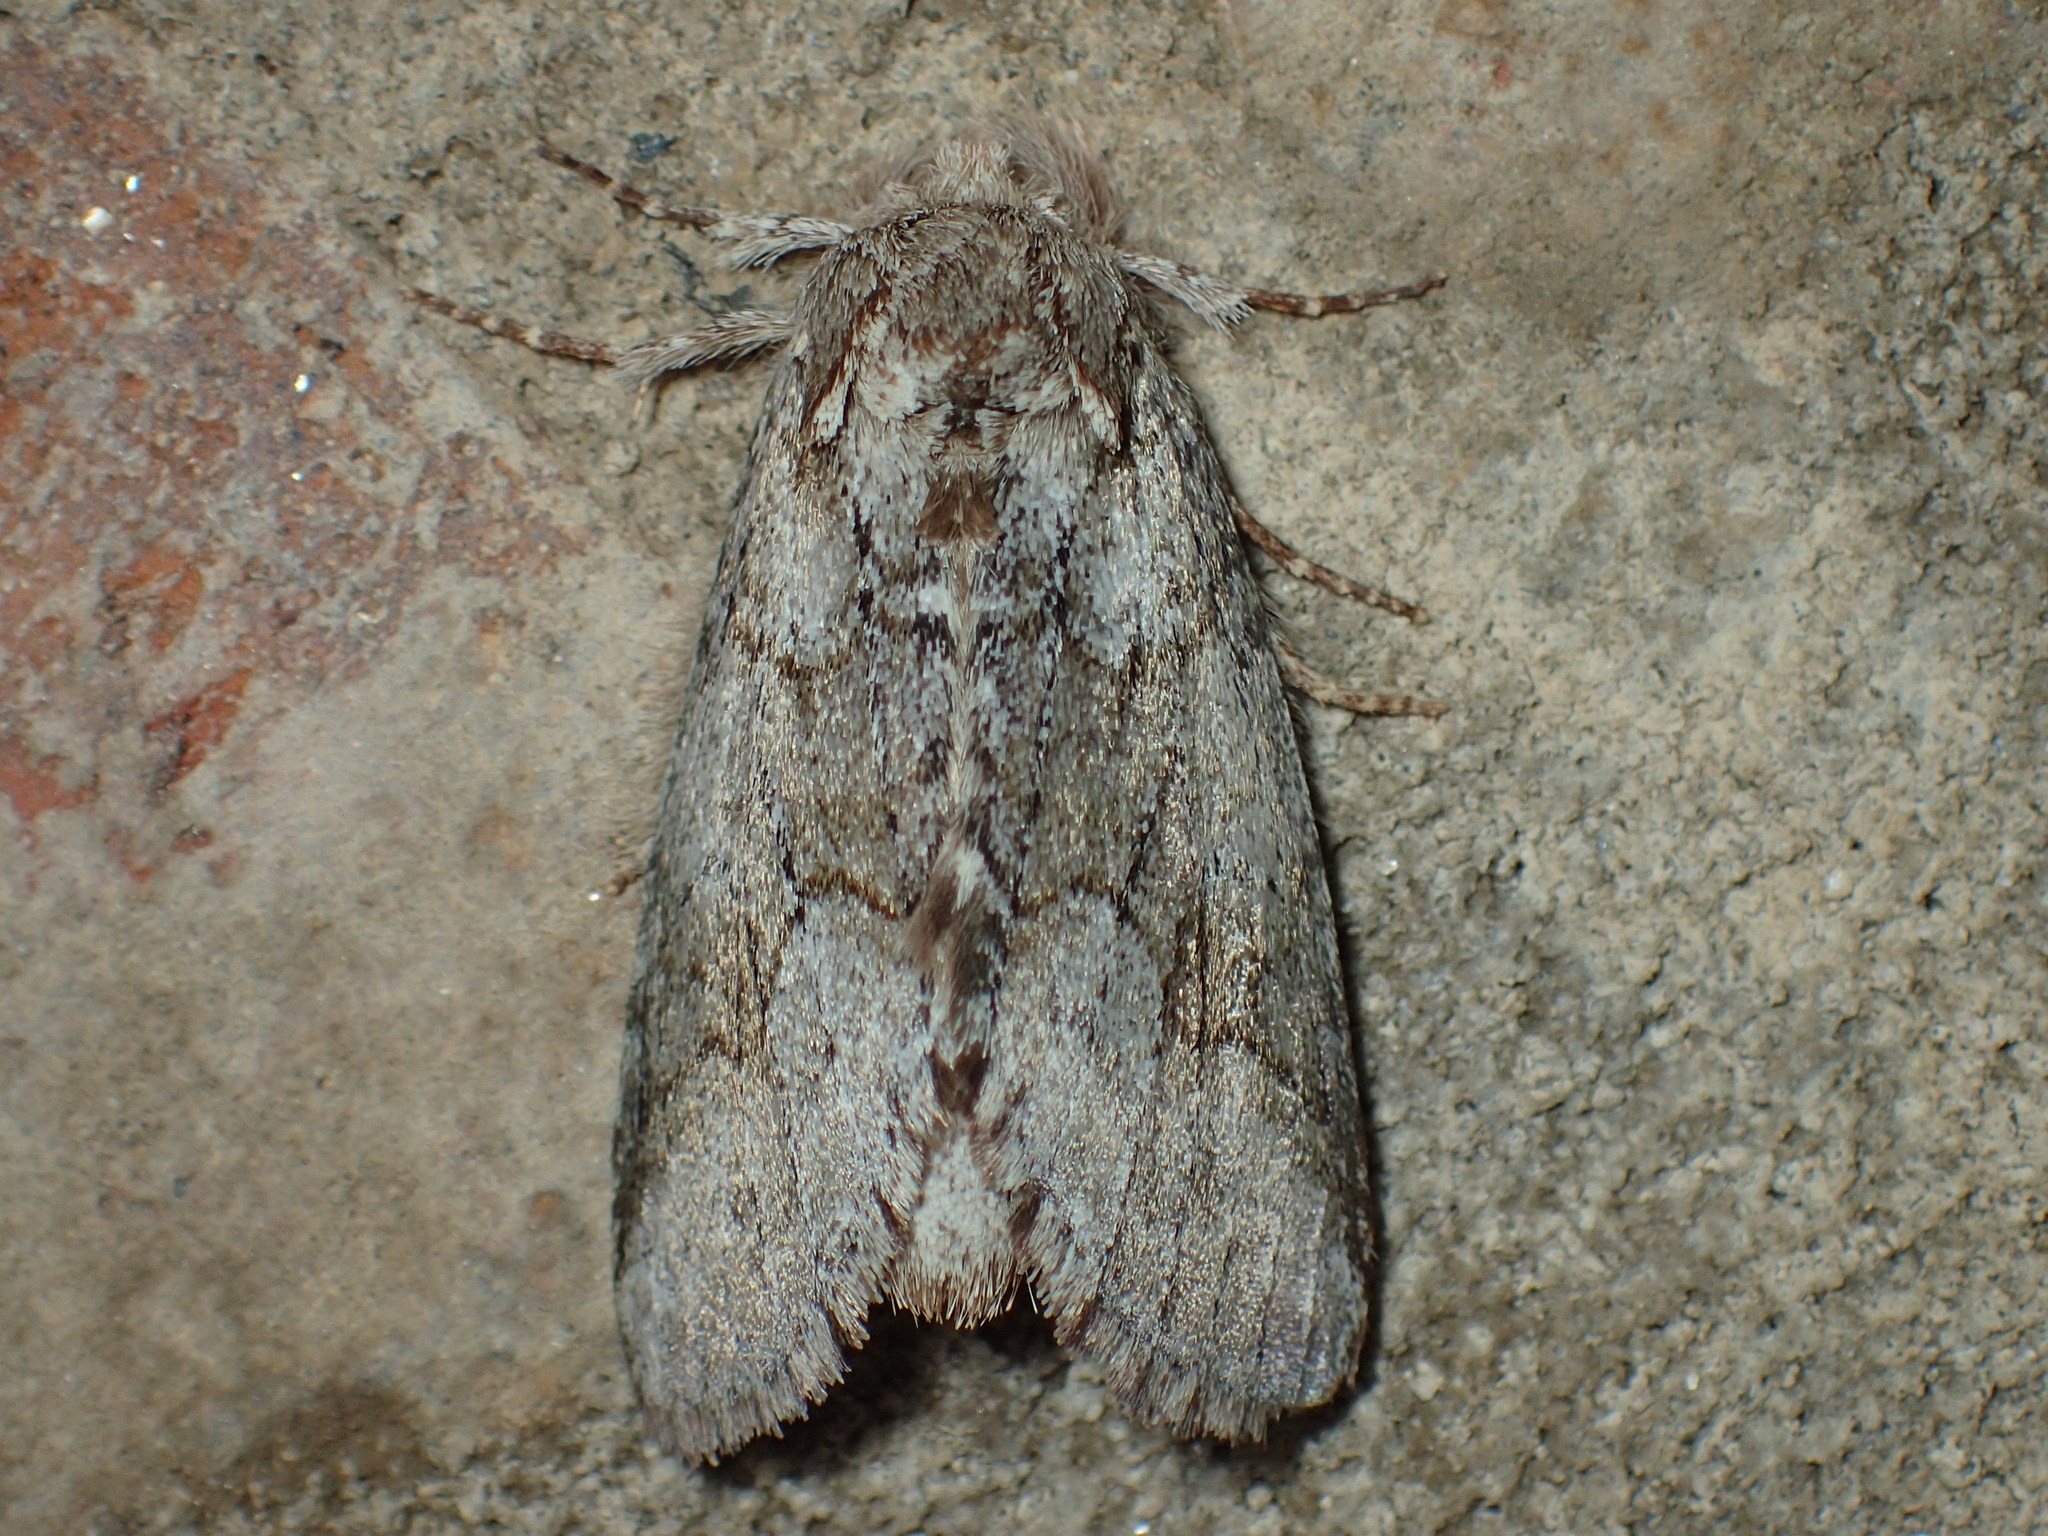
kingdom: Animalia
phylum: Arthropoda
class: Insecta
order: Lepidoptera
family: Notodontidae
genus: Lochmaeus
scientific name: Lochmaeus bilineata
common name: Double-lined prominent
